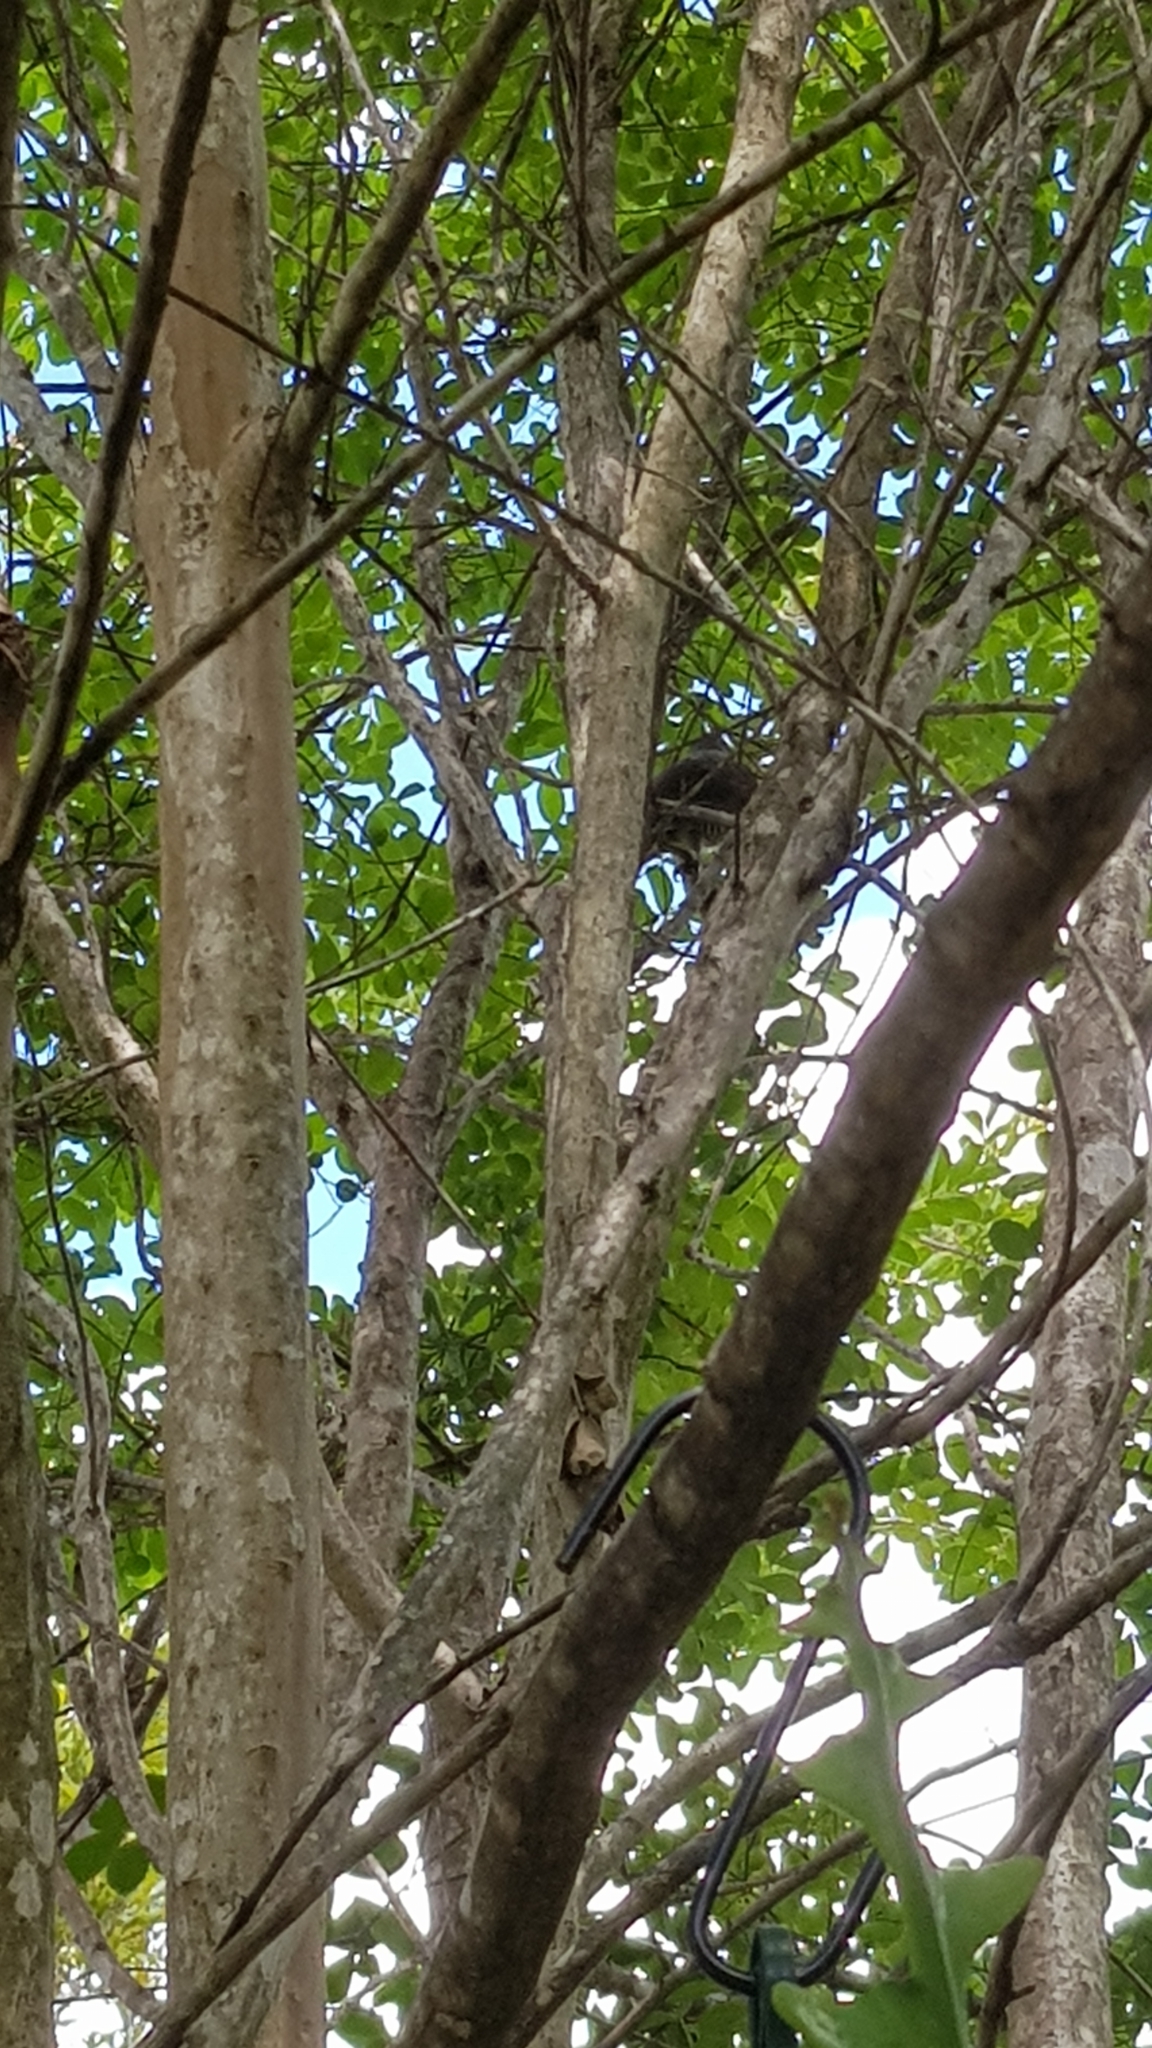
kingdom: Animalia
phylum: Chordata
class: Aves
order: Passeriformes
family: Ptilonorhynchidae
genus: Ptilonorhynchus
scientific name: Ptilonorhynchus violaceus
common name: Satin bowerbird
